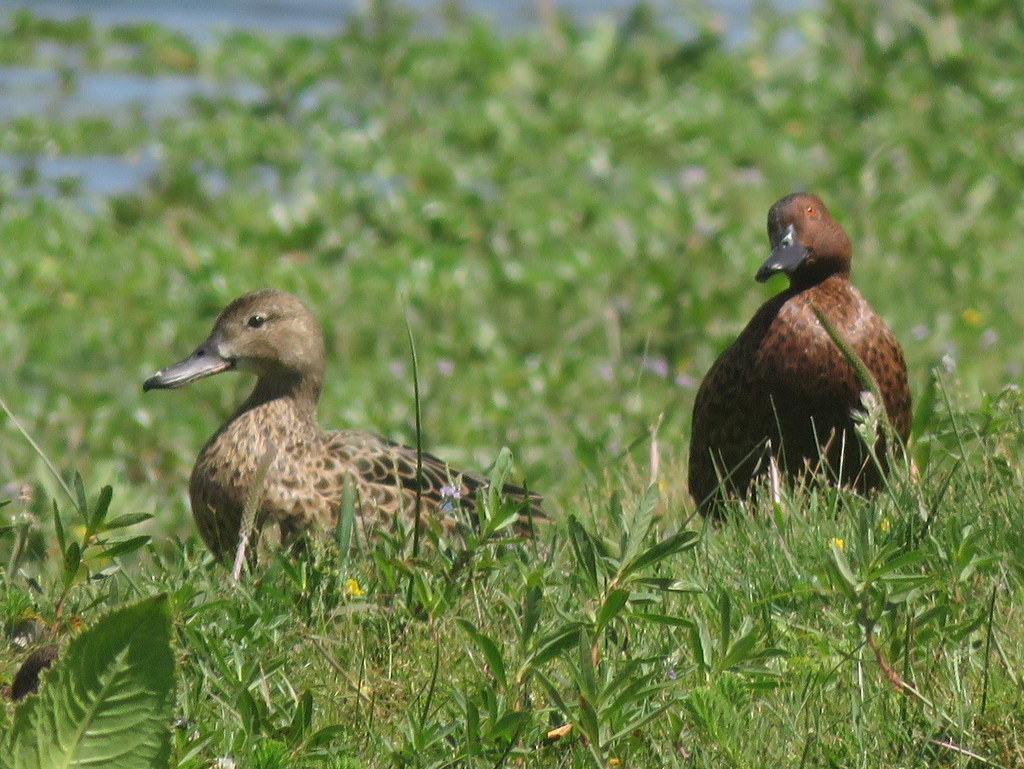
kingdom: Animalia
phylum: Chordata
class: Aves
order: Anseriformes
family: Anatidae
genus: Spatula
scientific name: Spatula cyanoptera
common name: Cinnamon teal
